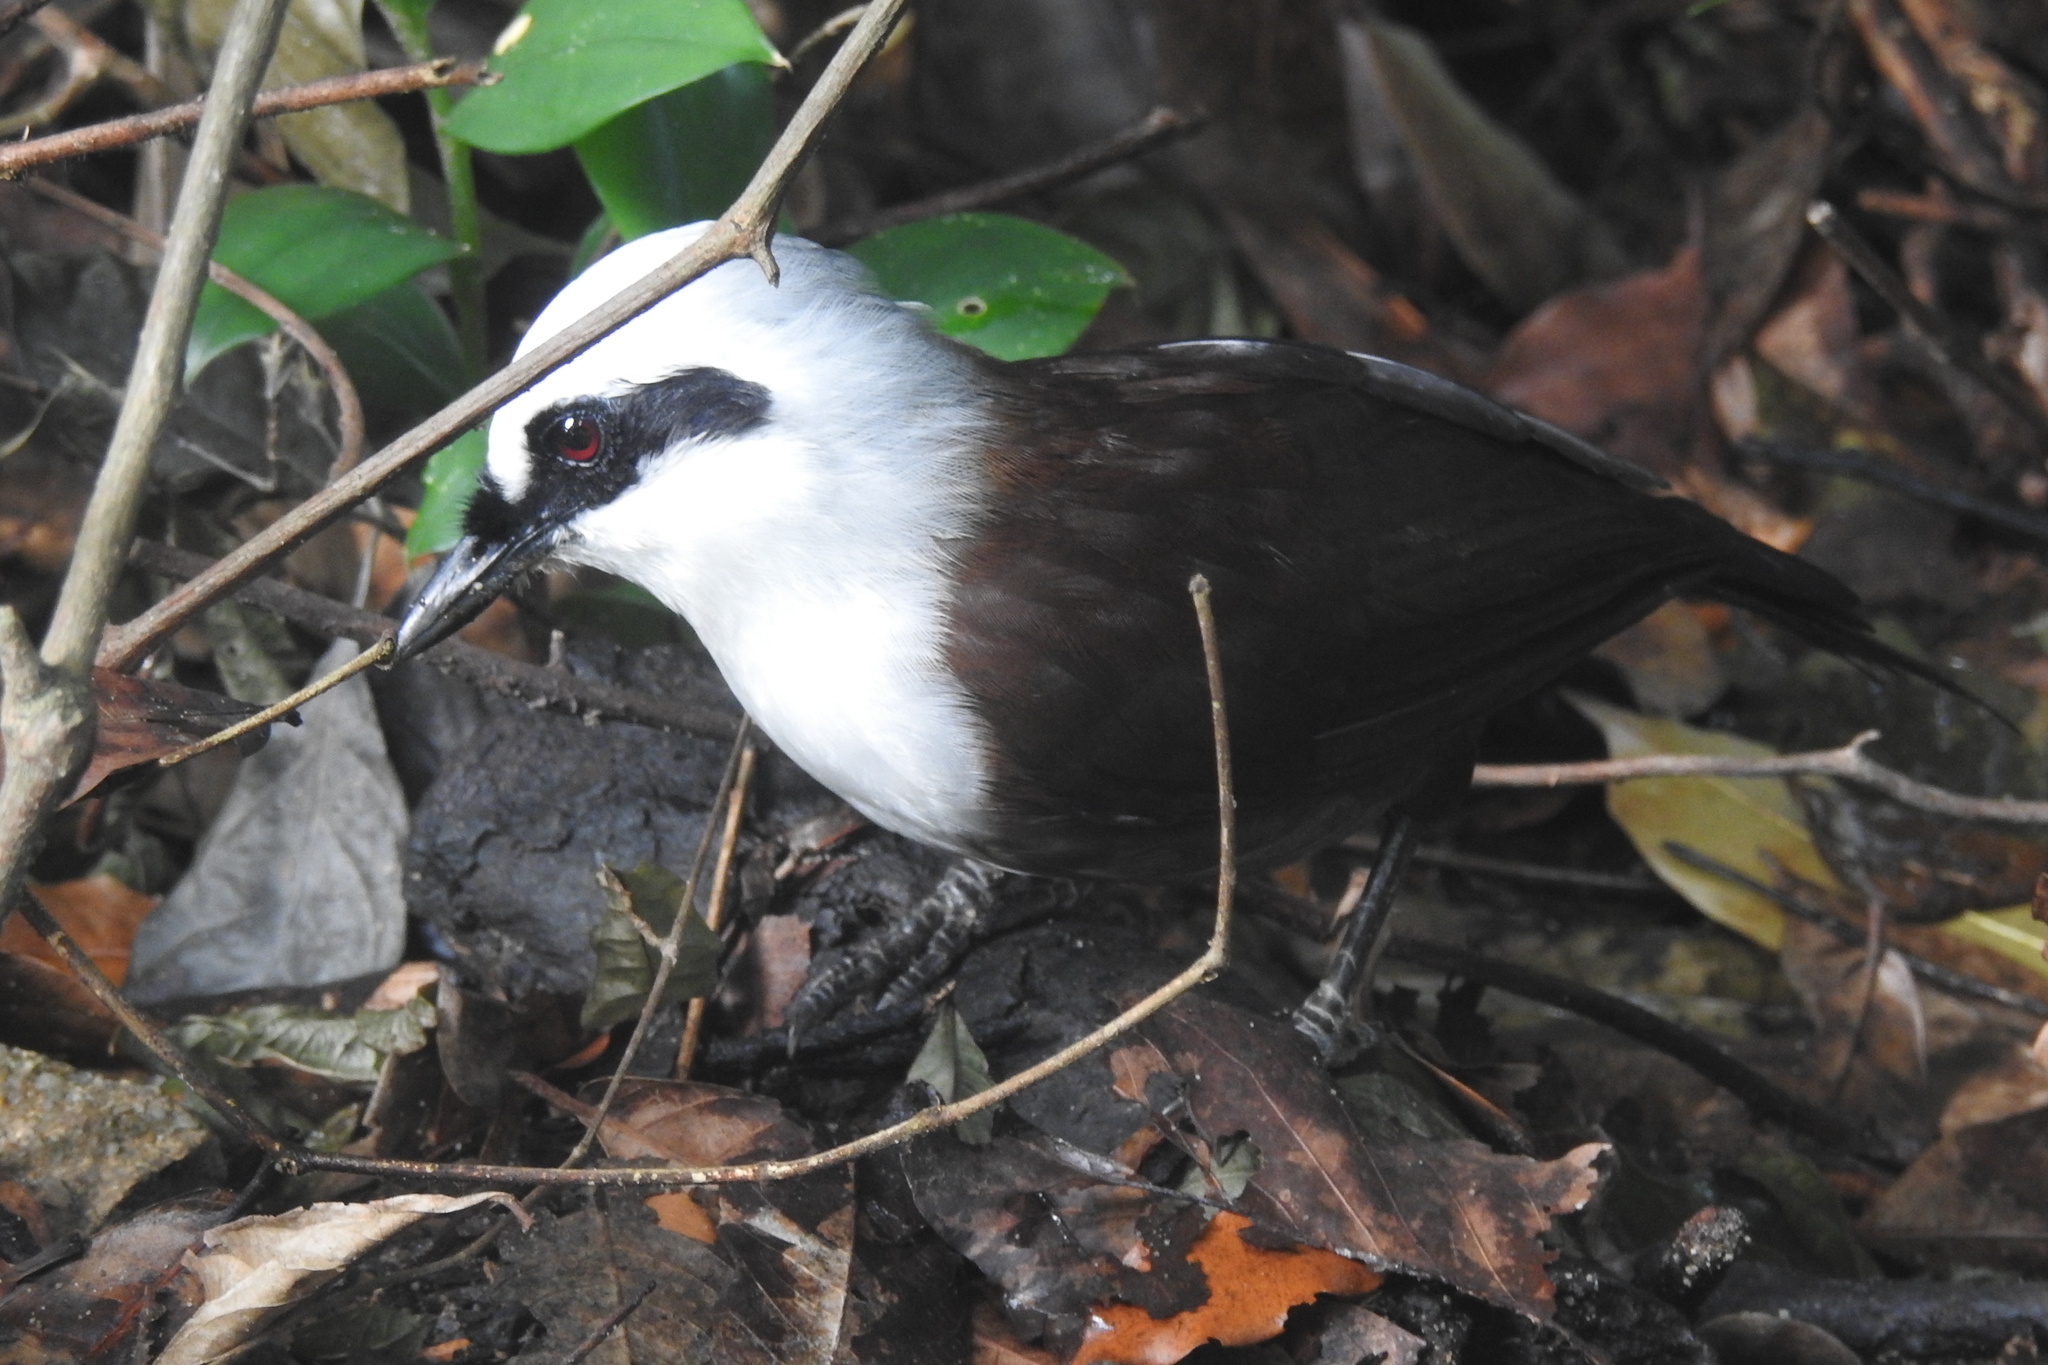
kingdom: Animalia
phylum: Chordata
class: Aves
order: Passeriformes
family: Leiothrichidae
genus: Garrulax
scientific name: Garrulax leucolophus
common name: White-crested laughingthrush
